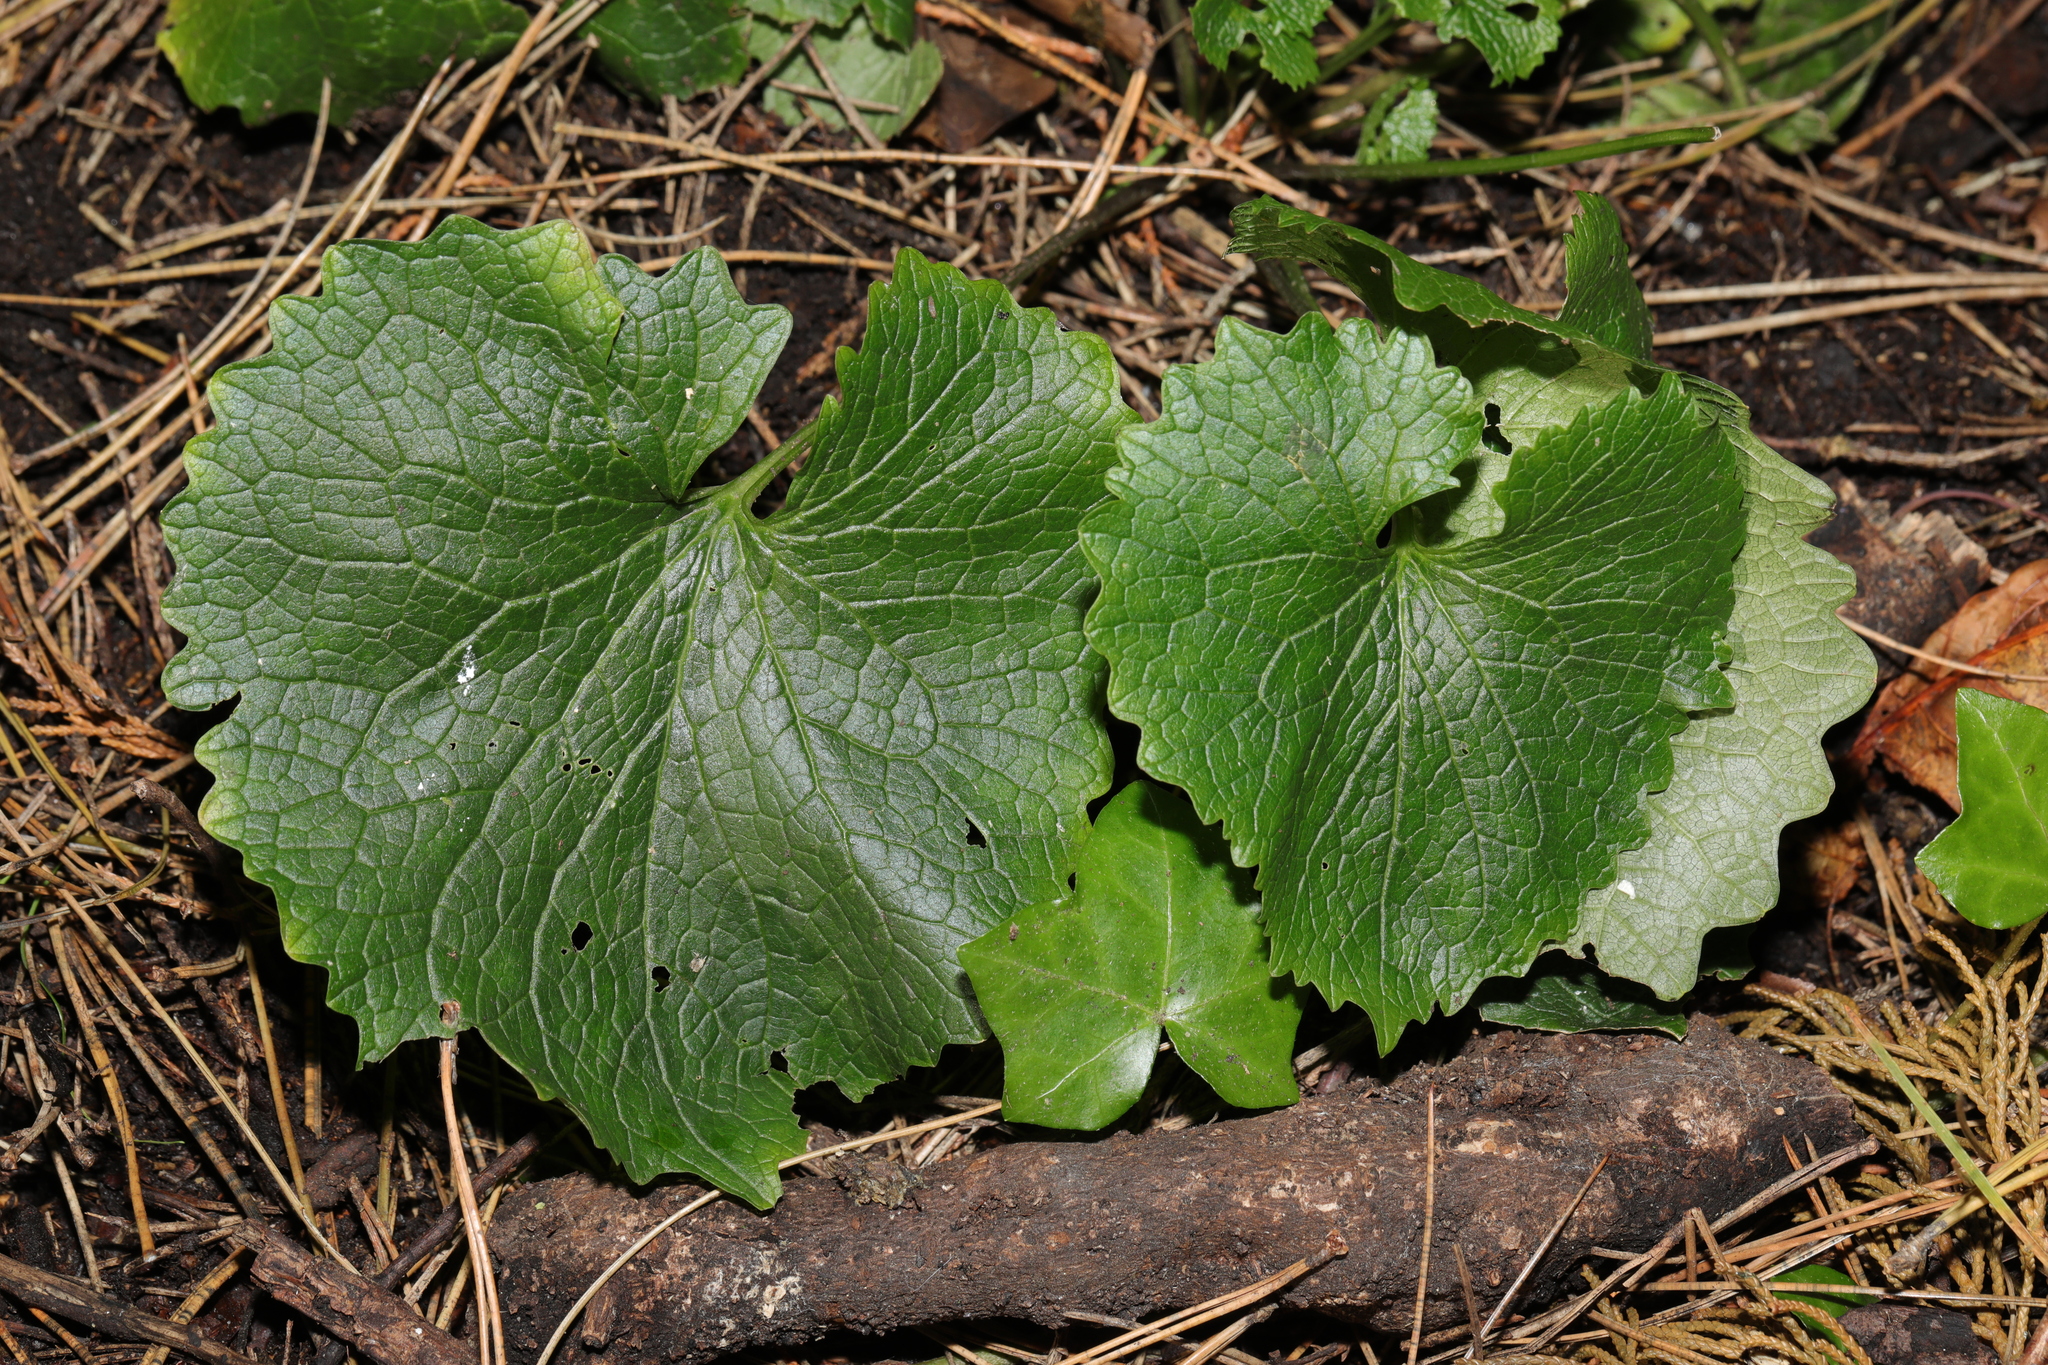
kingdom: Plantae
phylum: Tracheophyta
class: Magnoliopsida
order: Brassicales
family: Brassicaceae
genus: Alliaria
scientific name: Alliaria petiolata
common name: Garlic mustard
